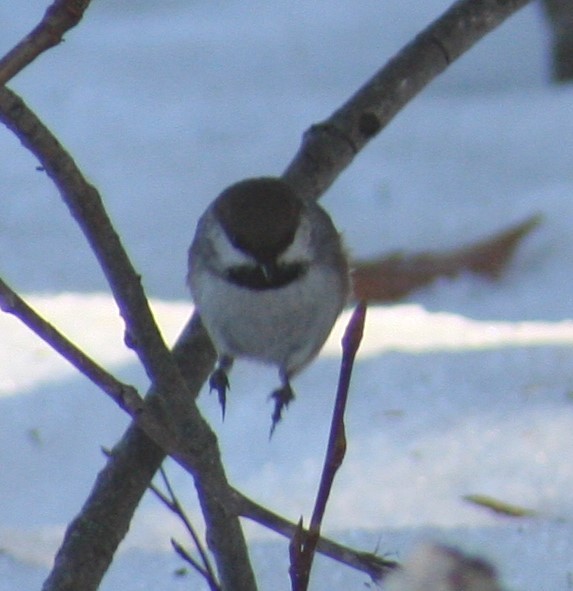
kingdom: Animalia
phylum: Chordata
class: Aves
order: Passeriformes
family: Paridae
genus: Poecile
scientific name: Poecile hudsonicus
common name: Boreal chickadee
